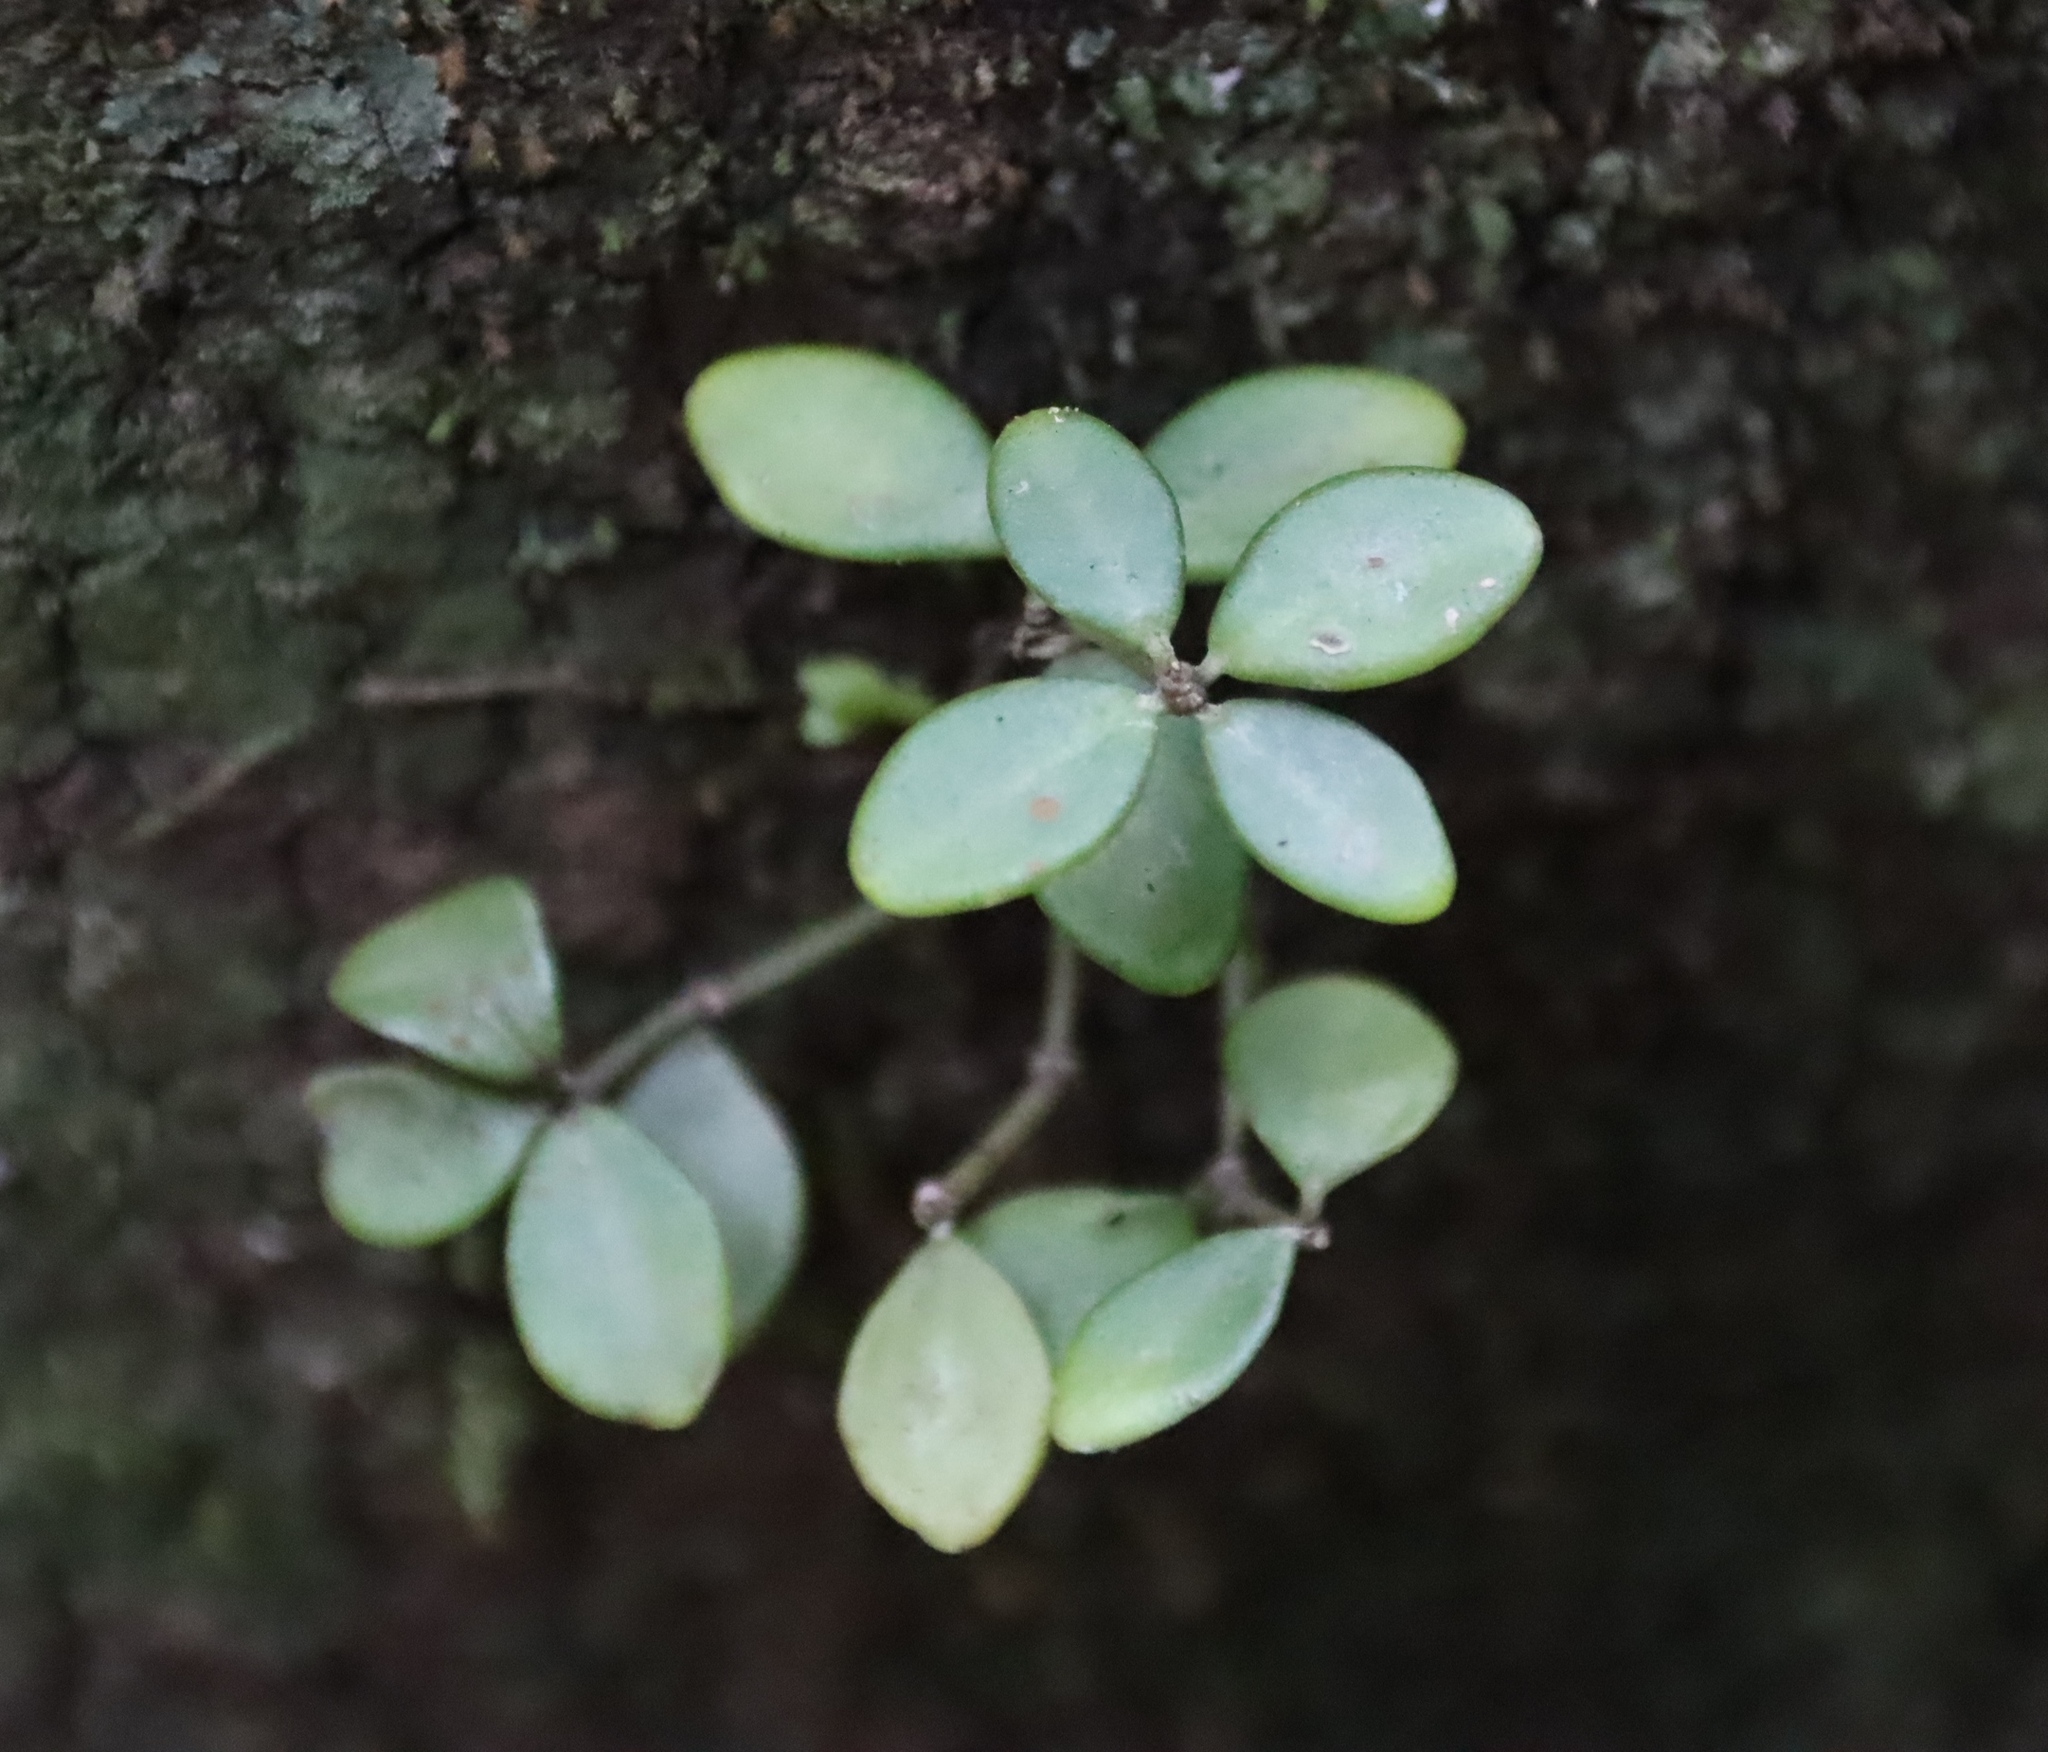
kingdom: Plantae
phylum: Tracheophyta
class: Magnoliopsida
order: Piperales
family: Piperaceae
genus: Peperomia
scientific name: Peperomia tetraphylla
